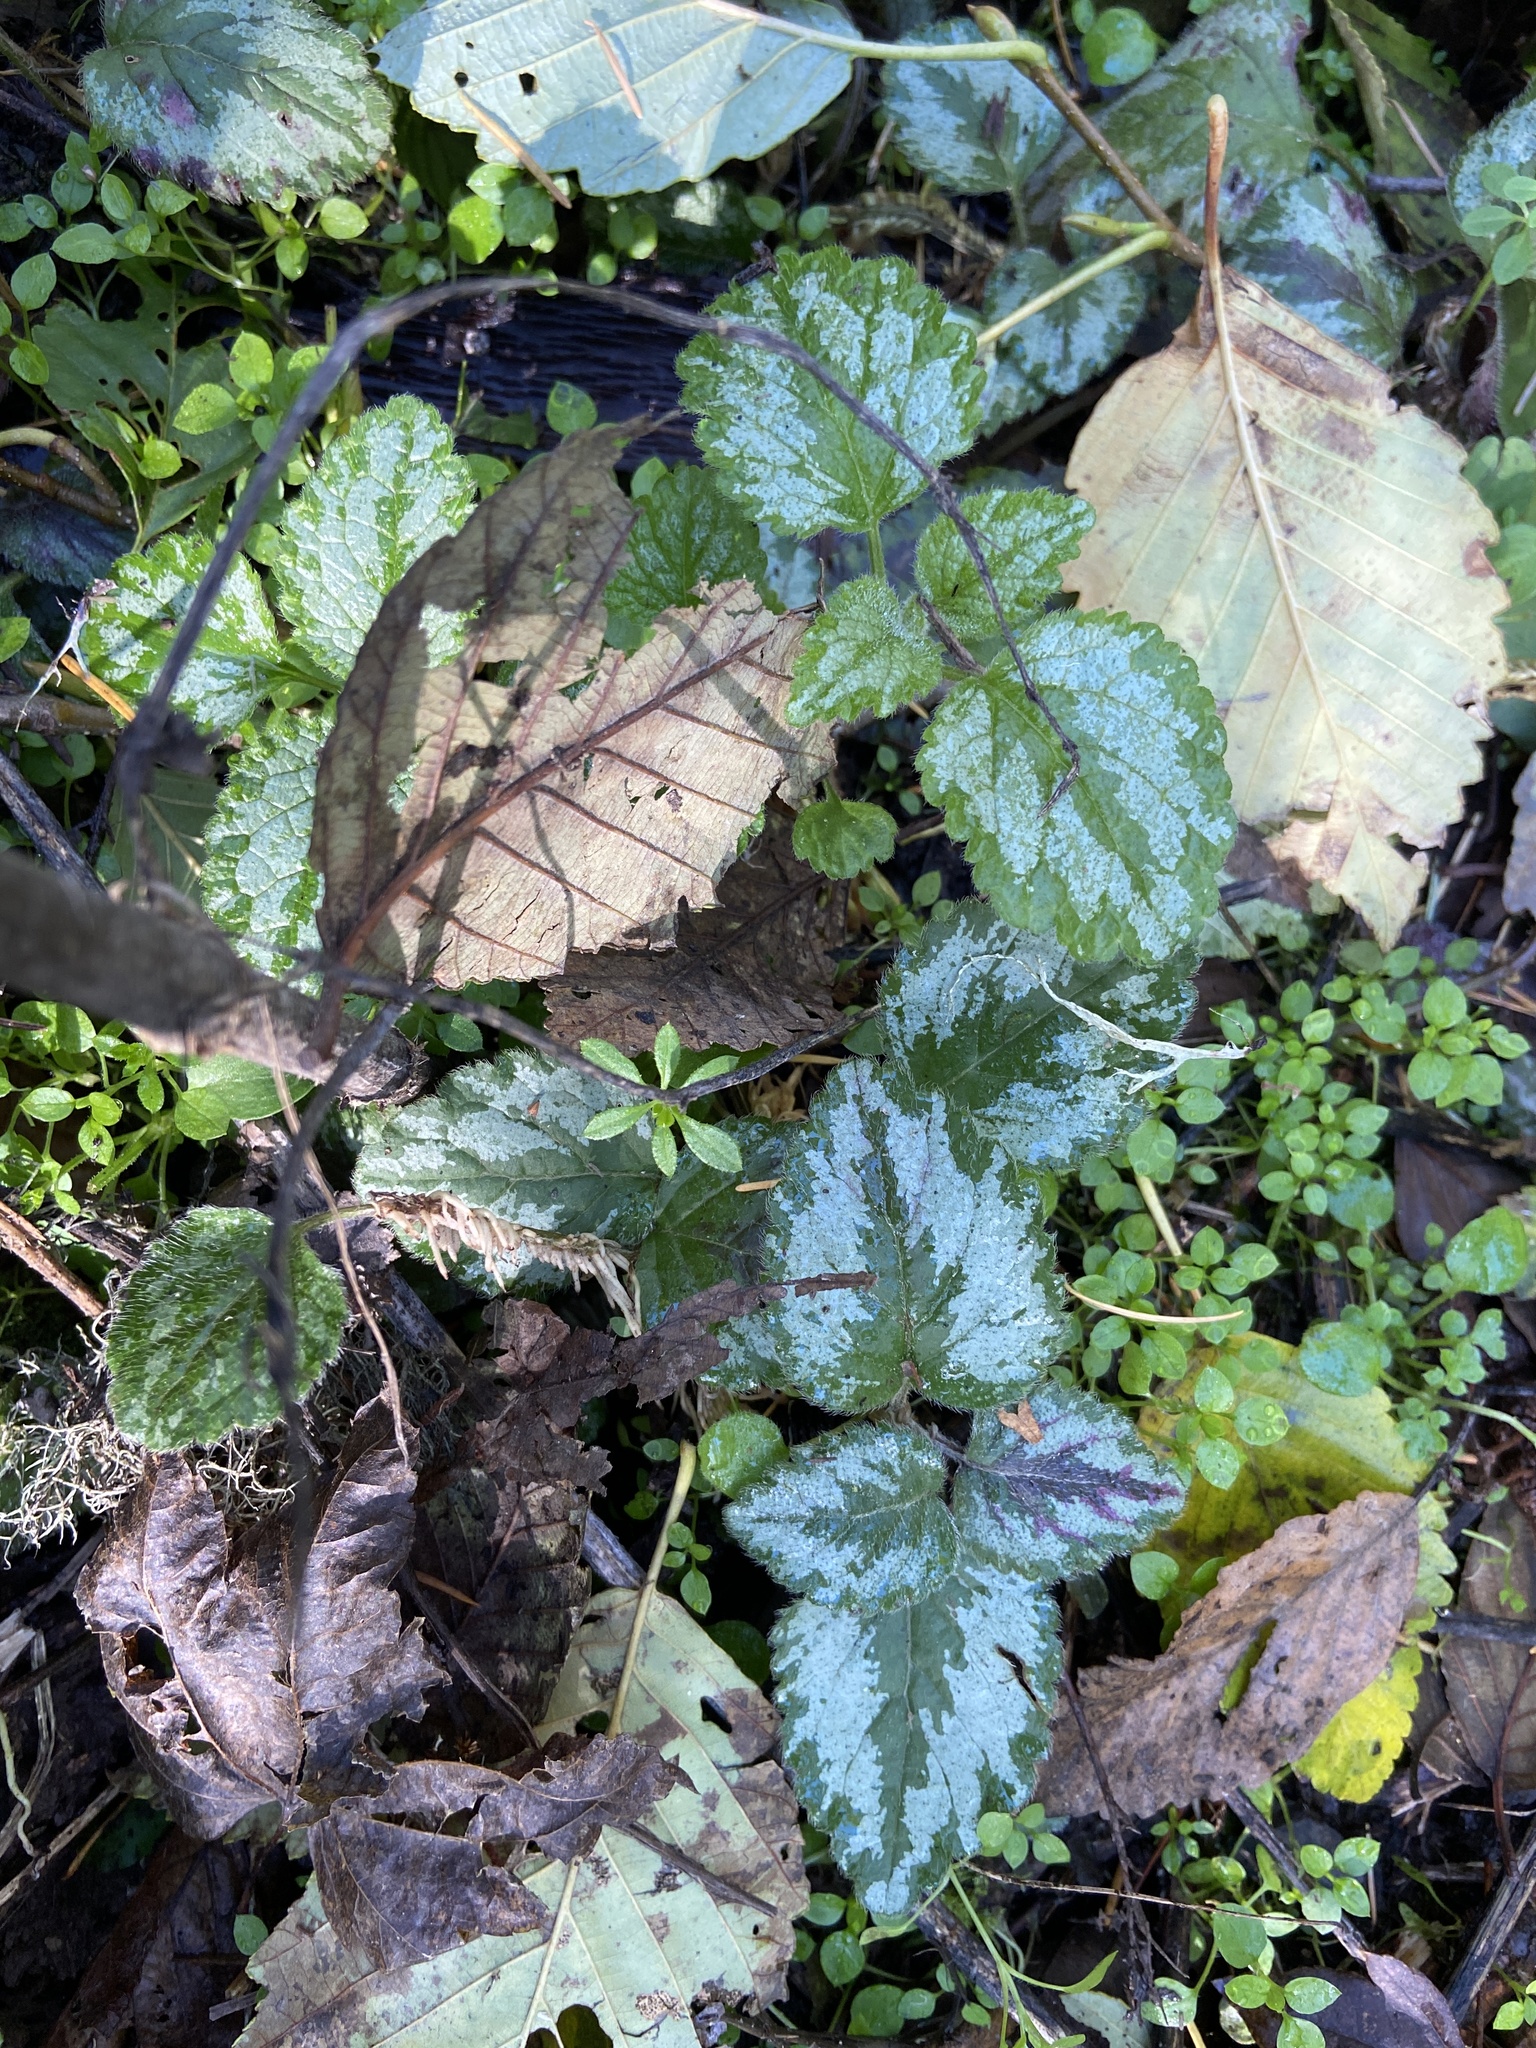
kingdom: Plantae
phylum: Tracheophyta
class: Magnoliopsida
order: Lamiales
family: Lamiaceae
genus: Lamium
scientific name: Lamium galeobdolon
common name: Yellow archangel
